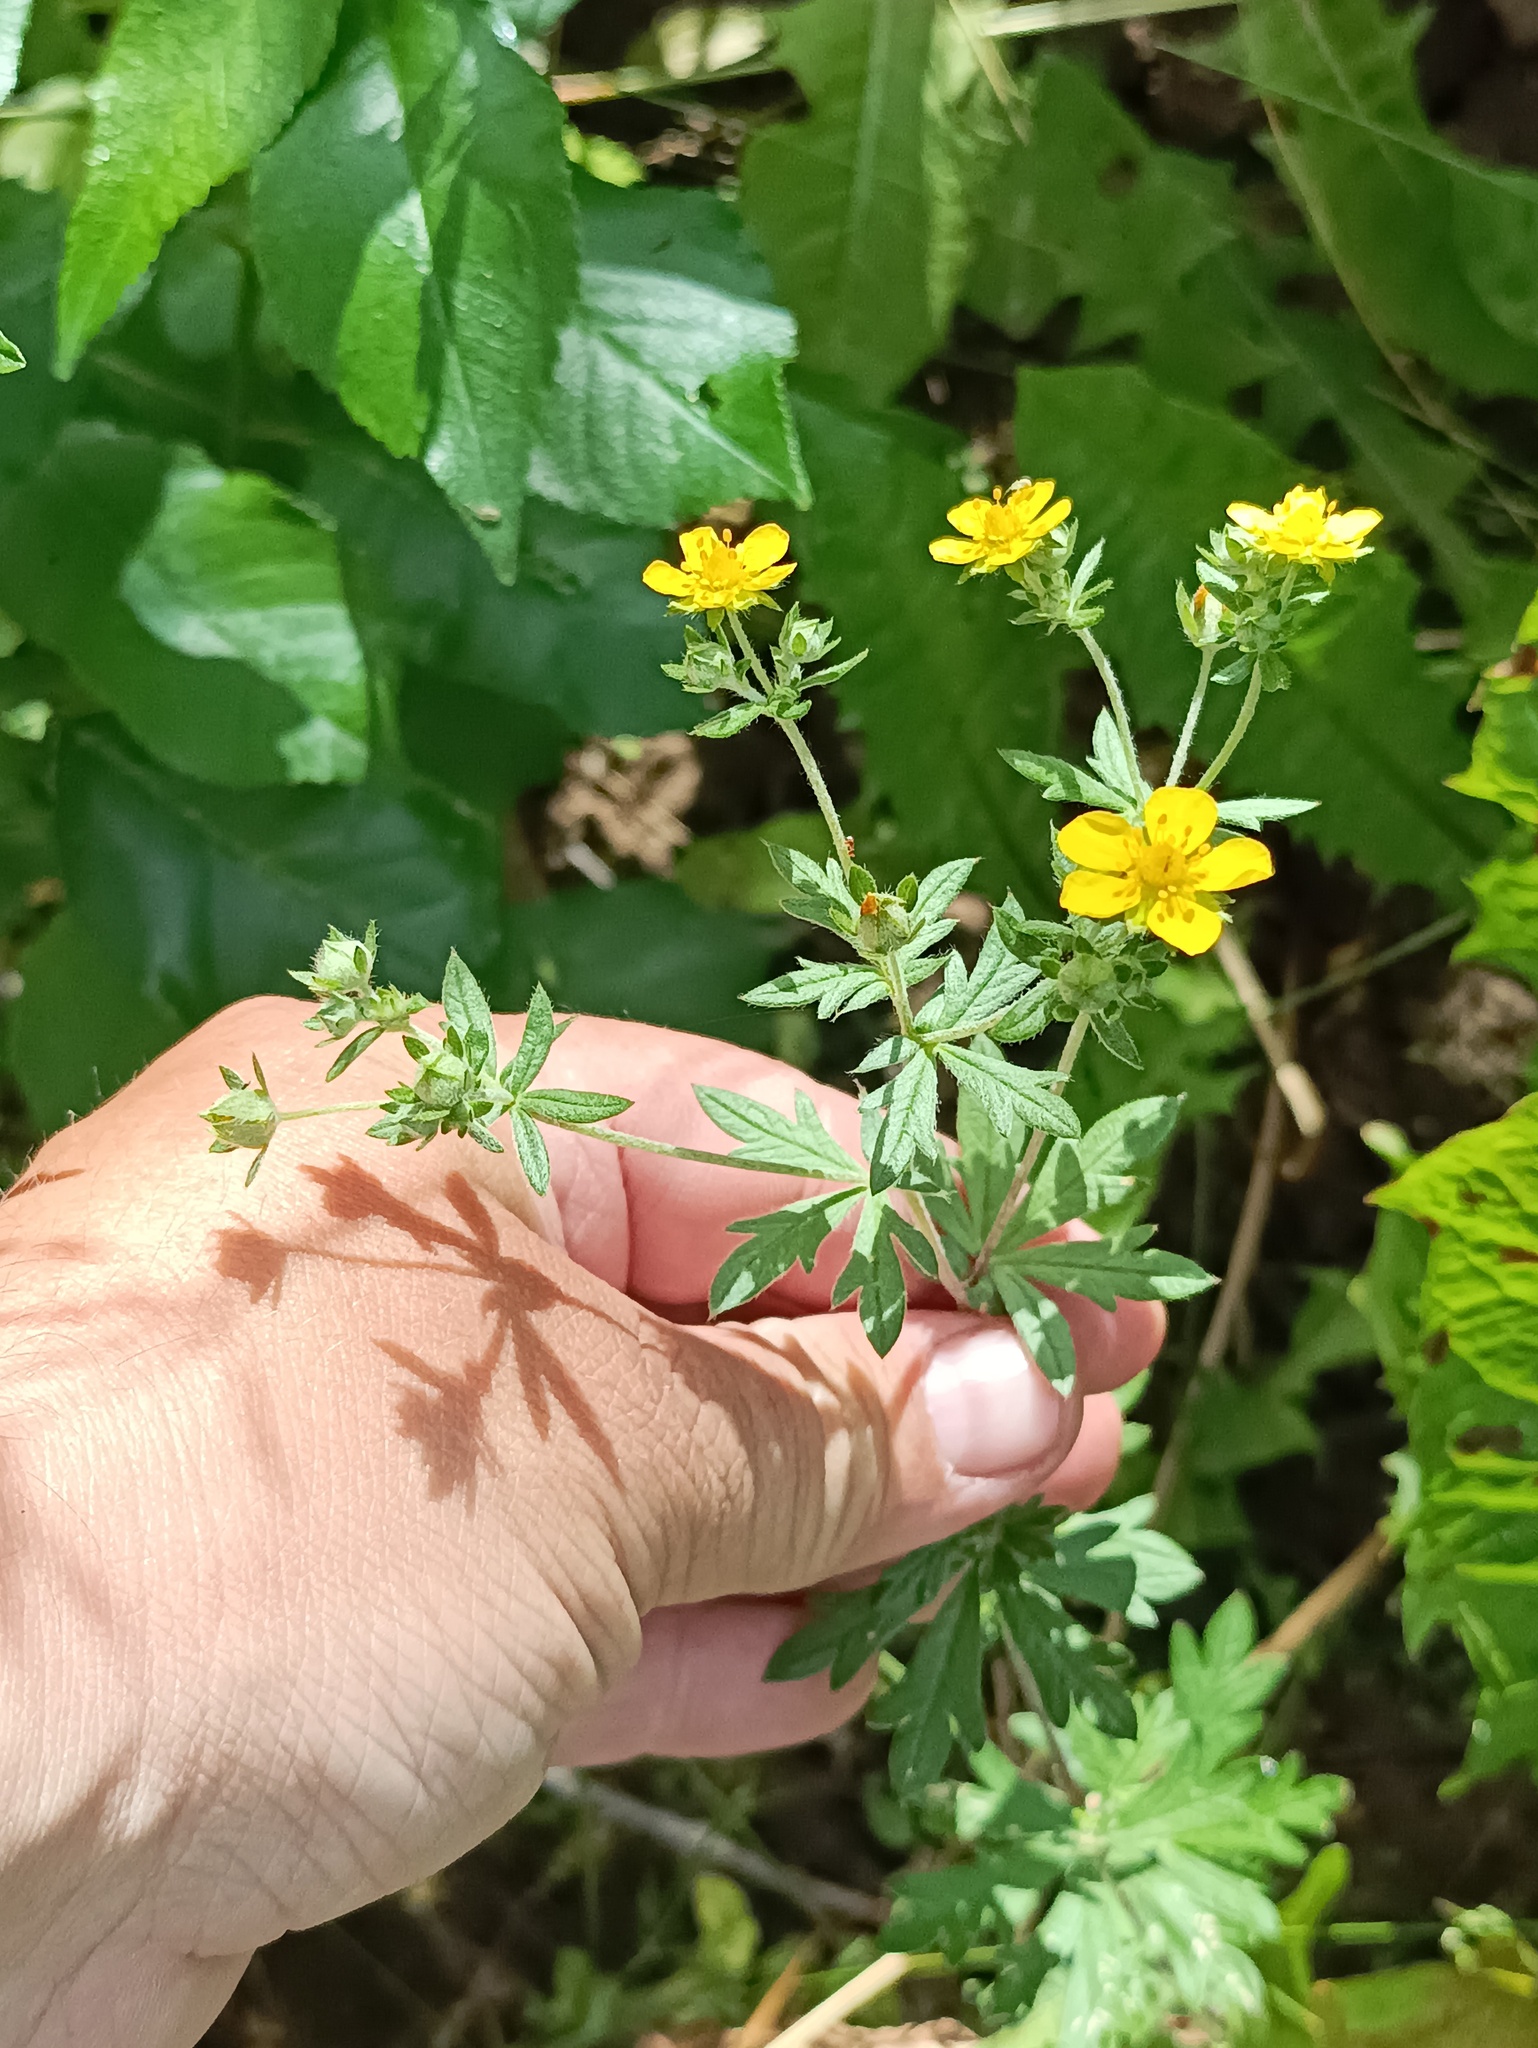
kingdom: Plantae
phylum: Tracheophyta
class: Magnoliopsida
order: Rosales
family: Rosaceae
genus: Potentilla
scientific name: Potentilla argentea
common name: Hoary cinquefoil
